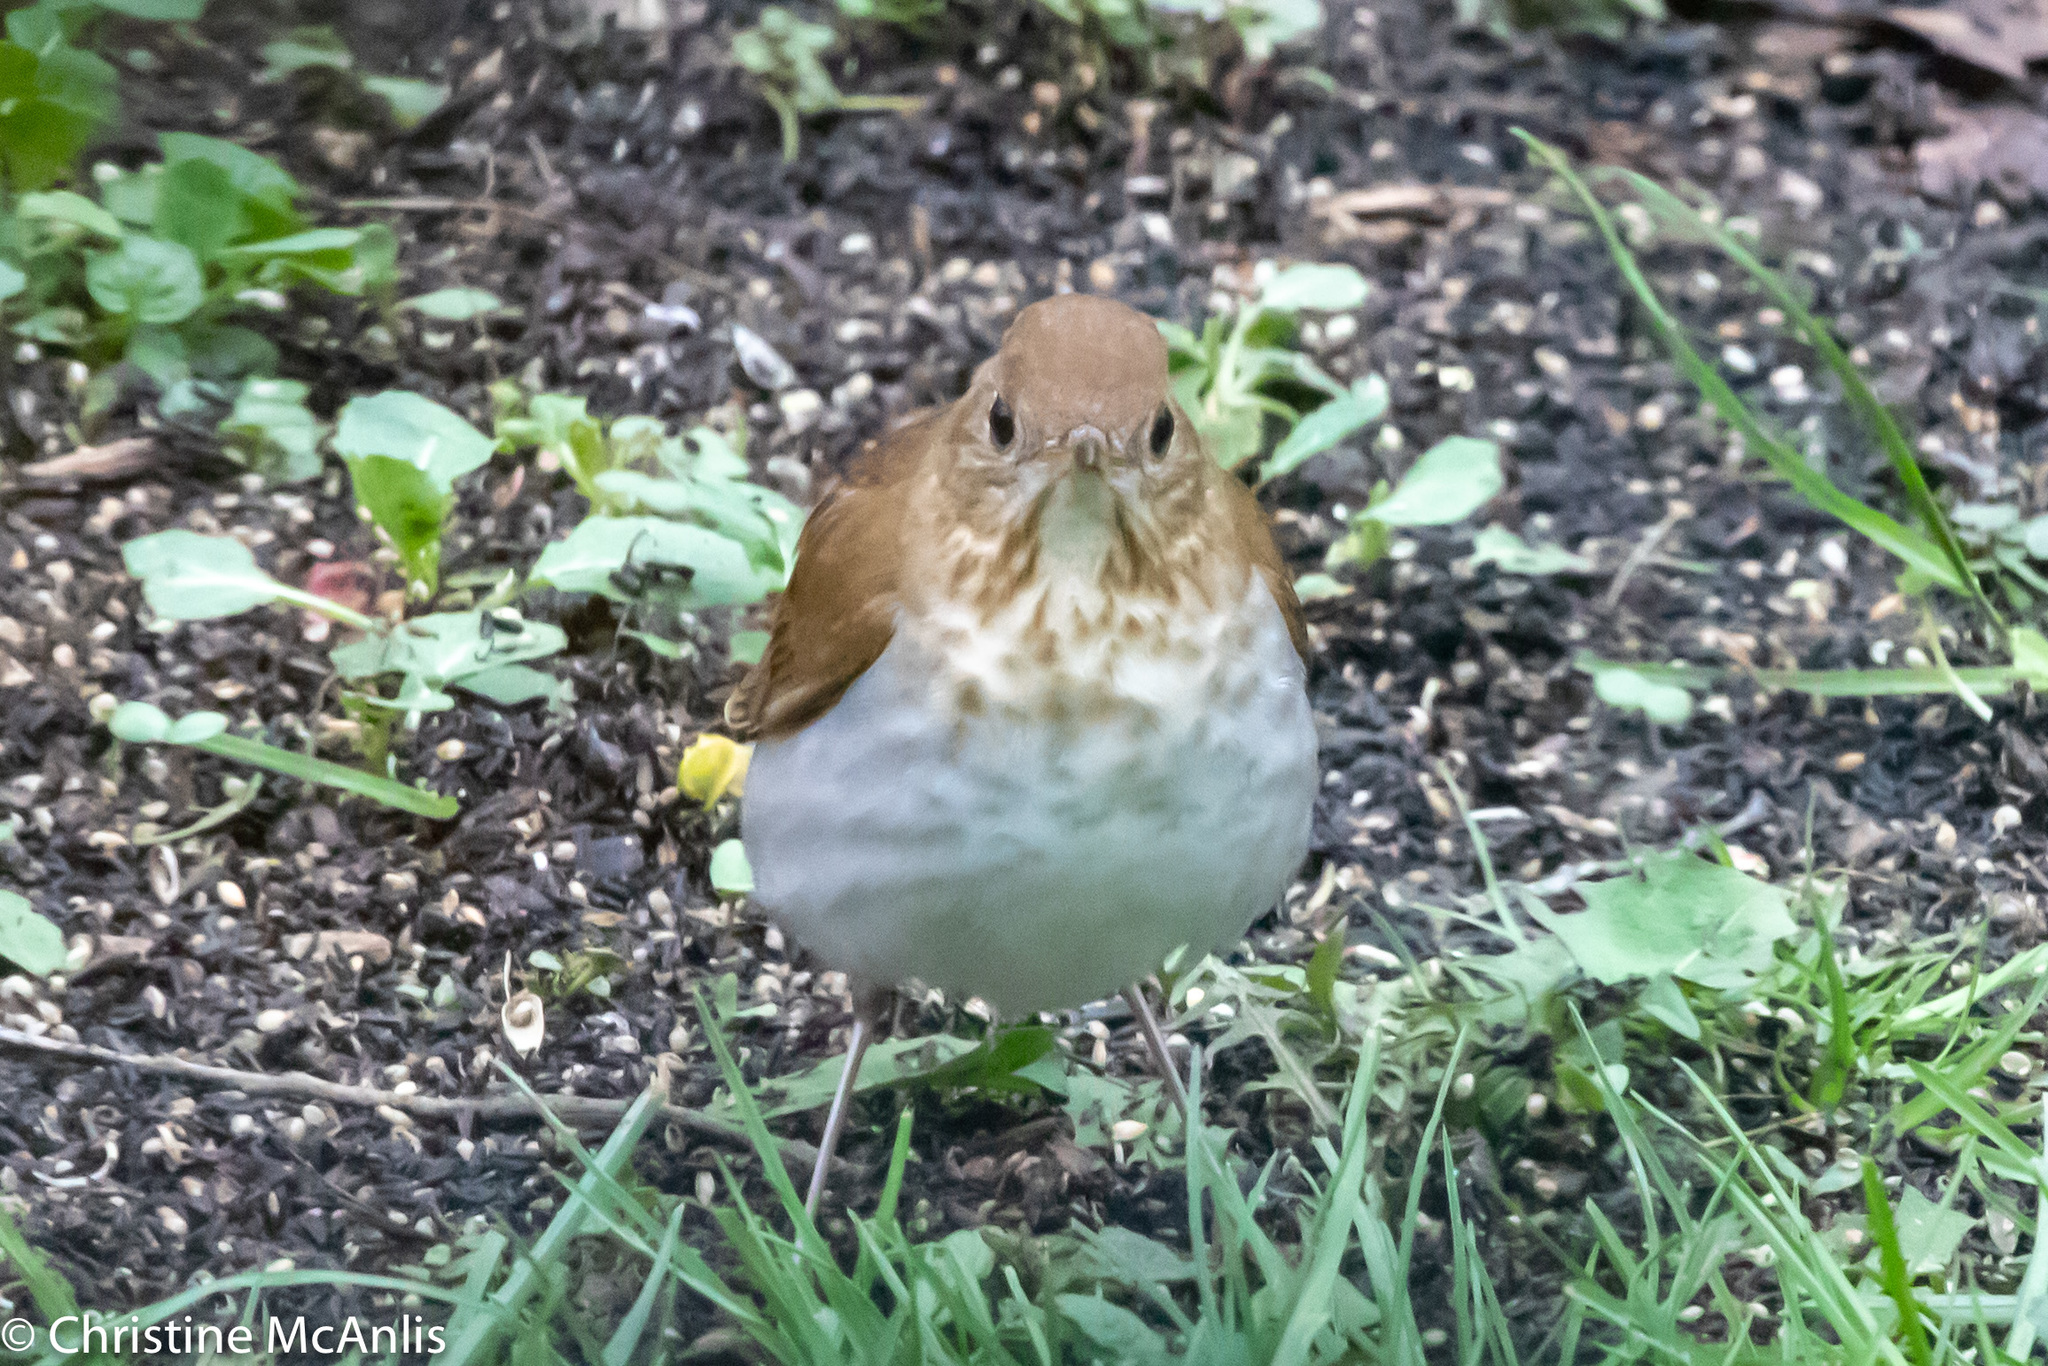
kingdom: Animalia
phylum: Chordata
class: Aves
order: Passeriformes
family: Turdidae
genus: Catharus
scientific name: Catharus fuscescens
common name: Veery
